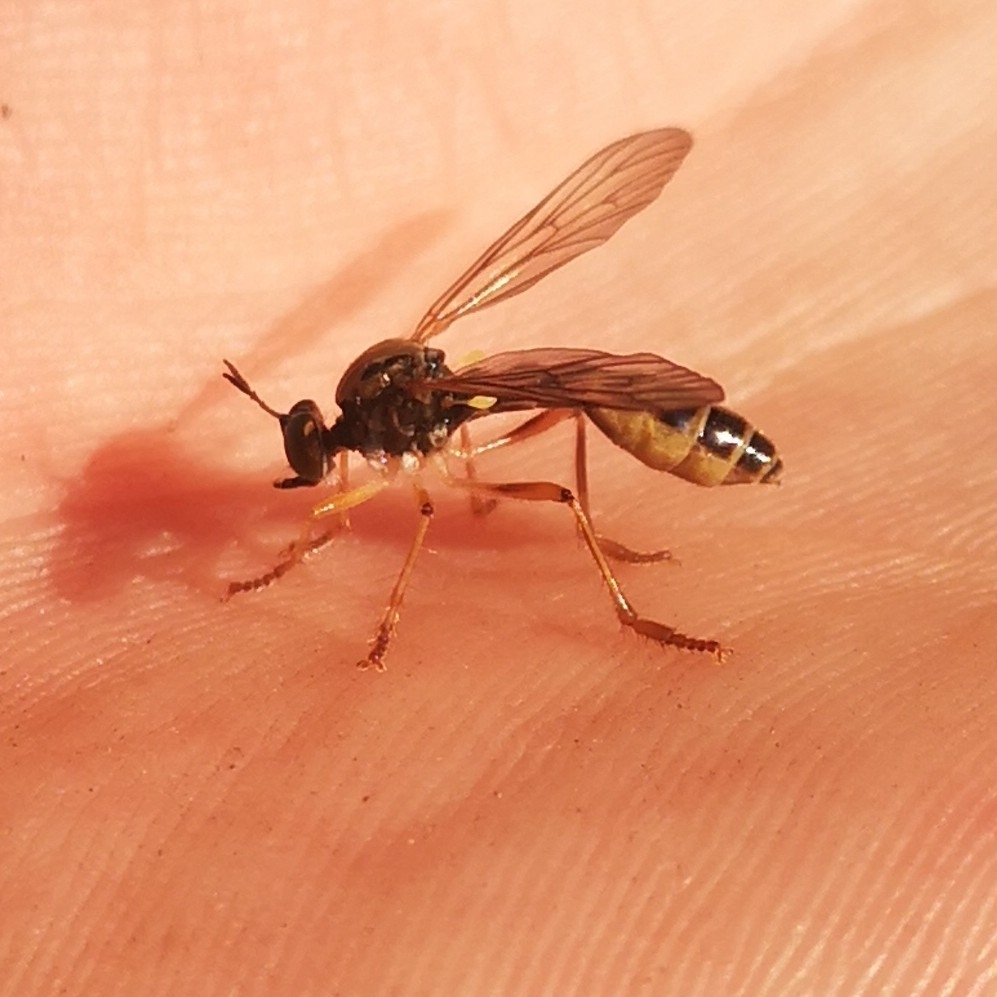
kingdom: Animalia
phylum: Arthropoda
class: Insecta
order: Diptera
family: Asilidae
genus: Dioctria
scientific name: Dioctria linearis
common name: Small yellow-legged robberfly
